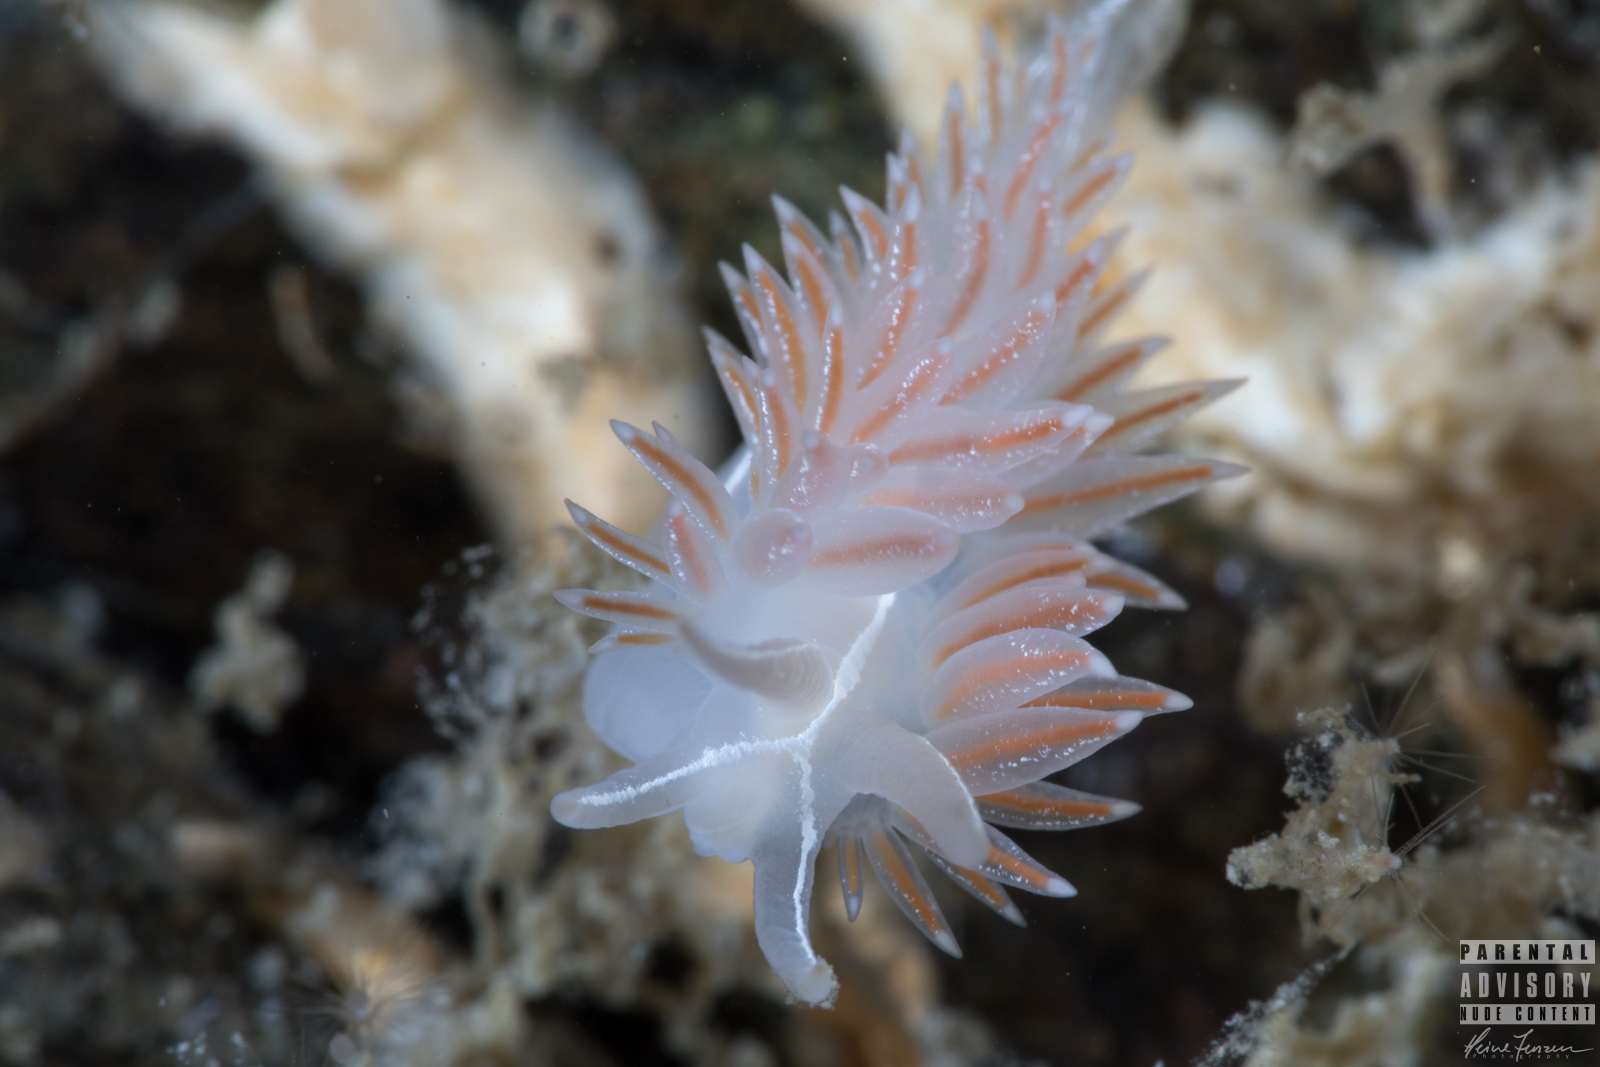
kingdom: Animalia
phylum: Mollusca
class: Gastropoda
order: Nudibranchia
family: Coryphellidae
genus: Coryphella
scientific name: Coryphella monicae
